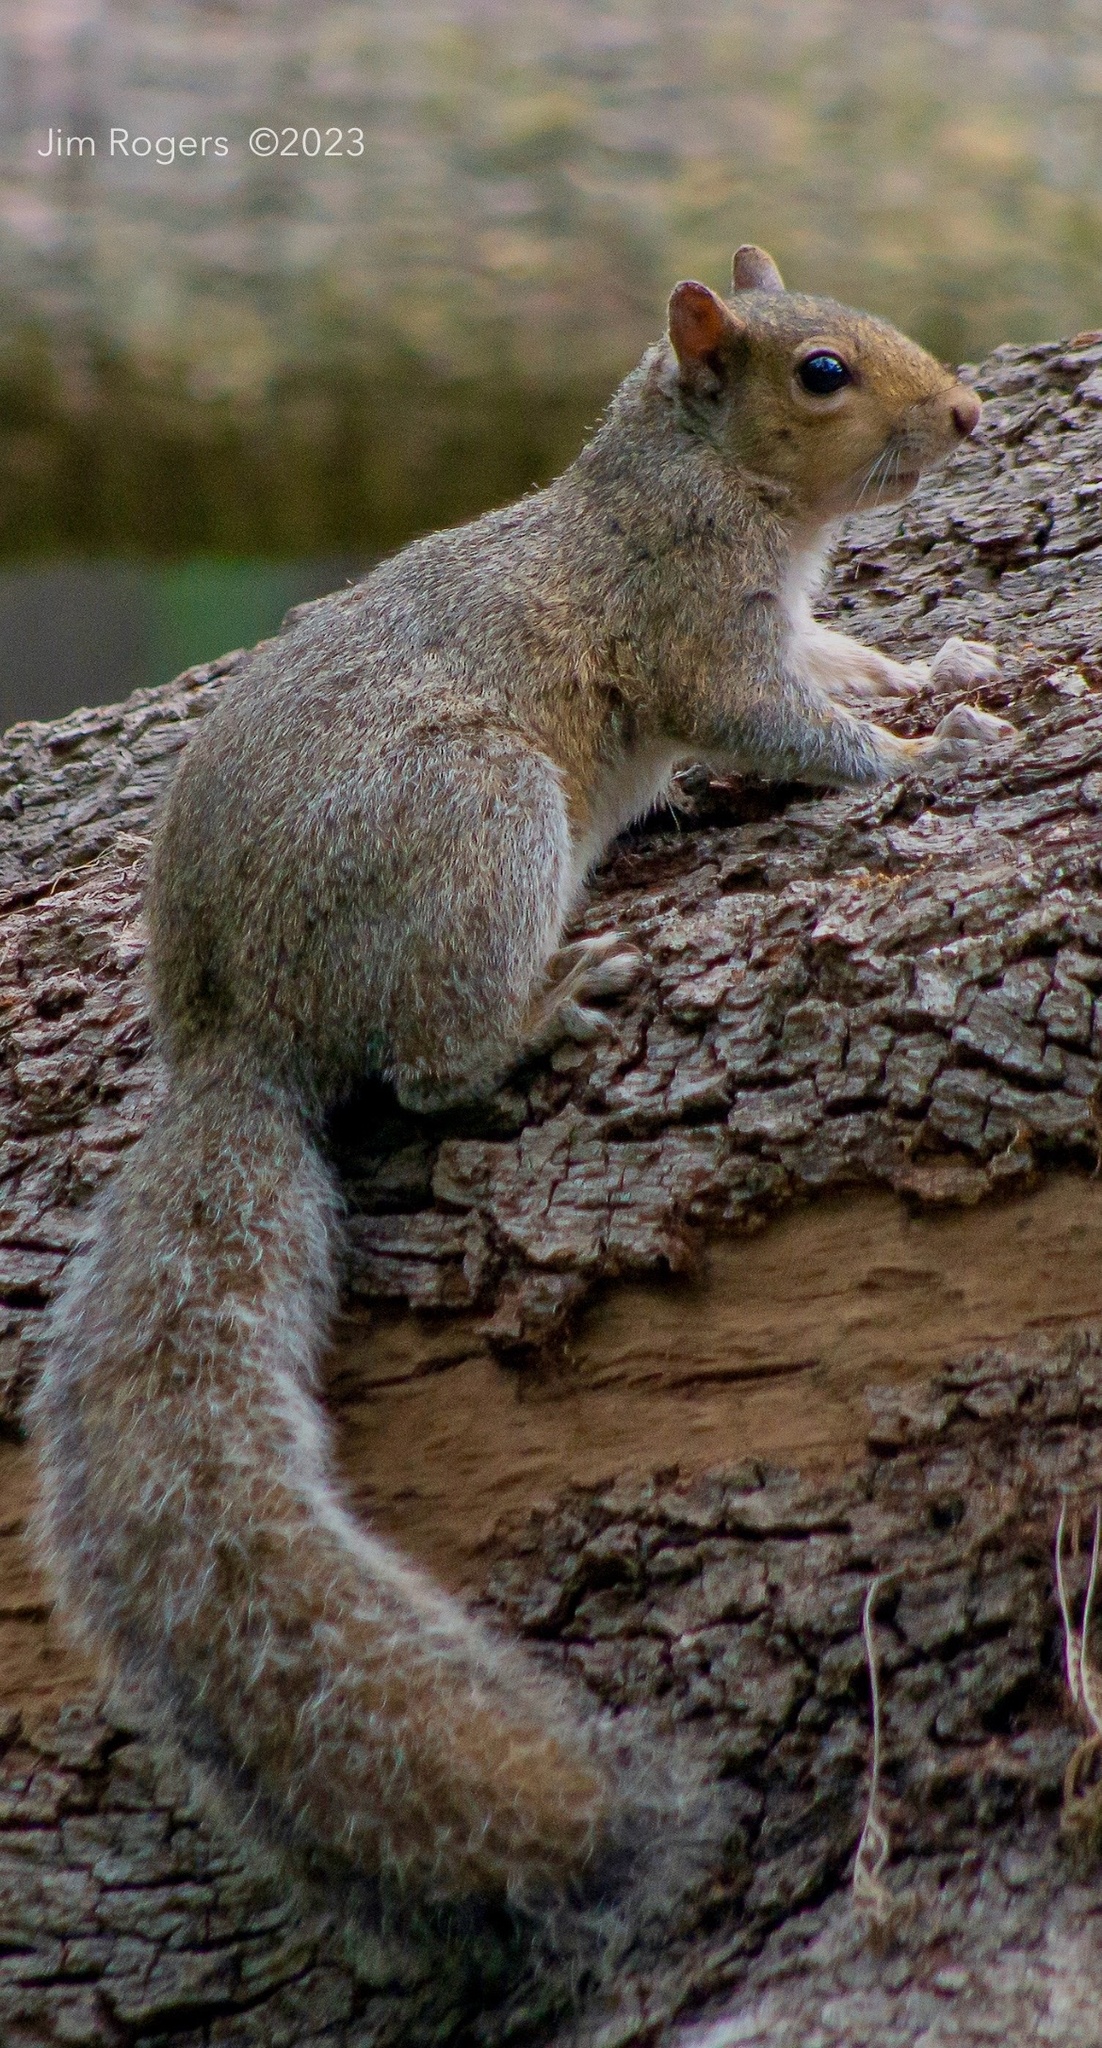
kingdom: Animalia
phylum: Chordata
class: Mammalia
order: Rodentia
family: Sciuridae
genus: Sciurus
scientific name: Sciurus carolinensis
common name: Eastern gray squirrel
